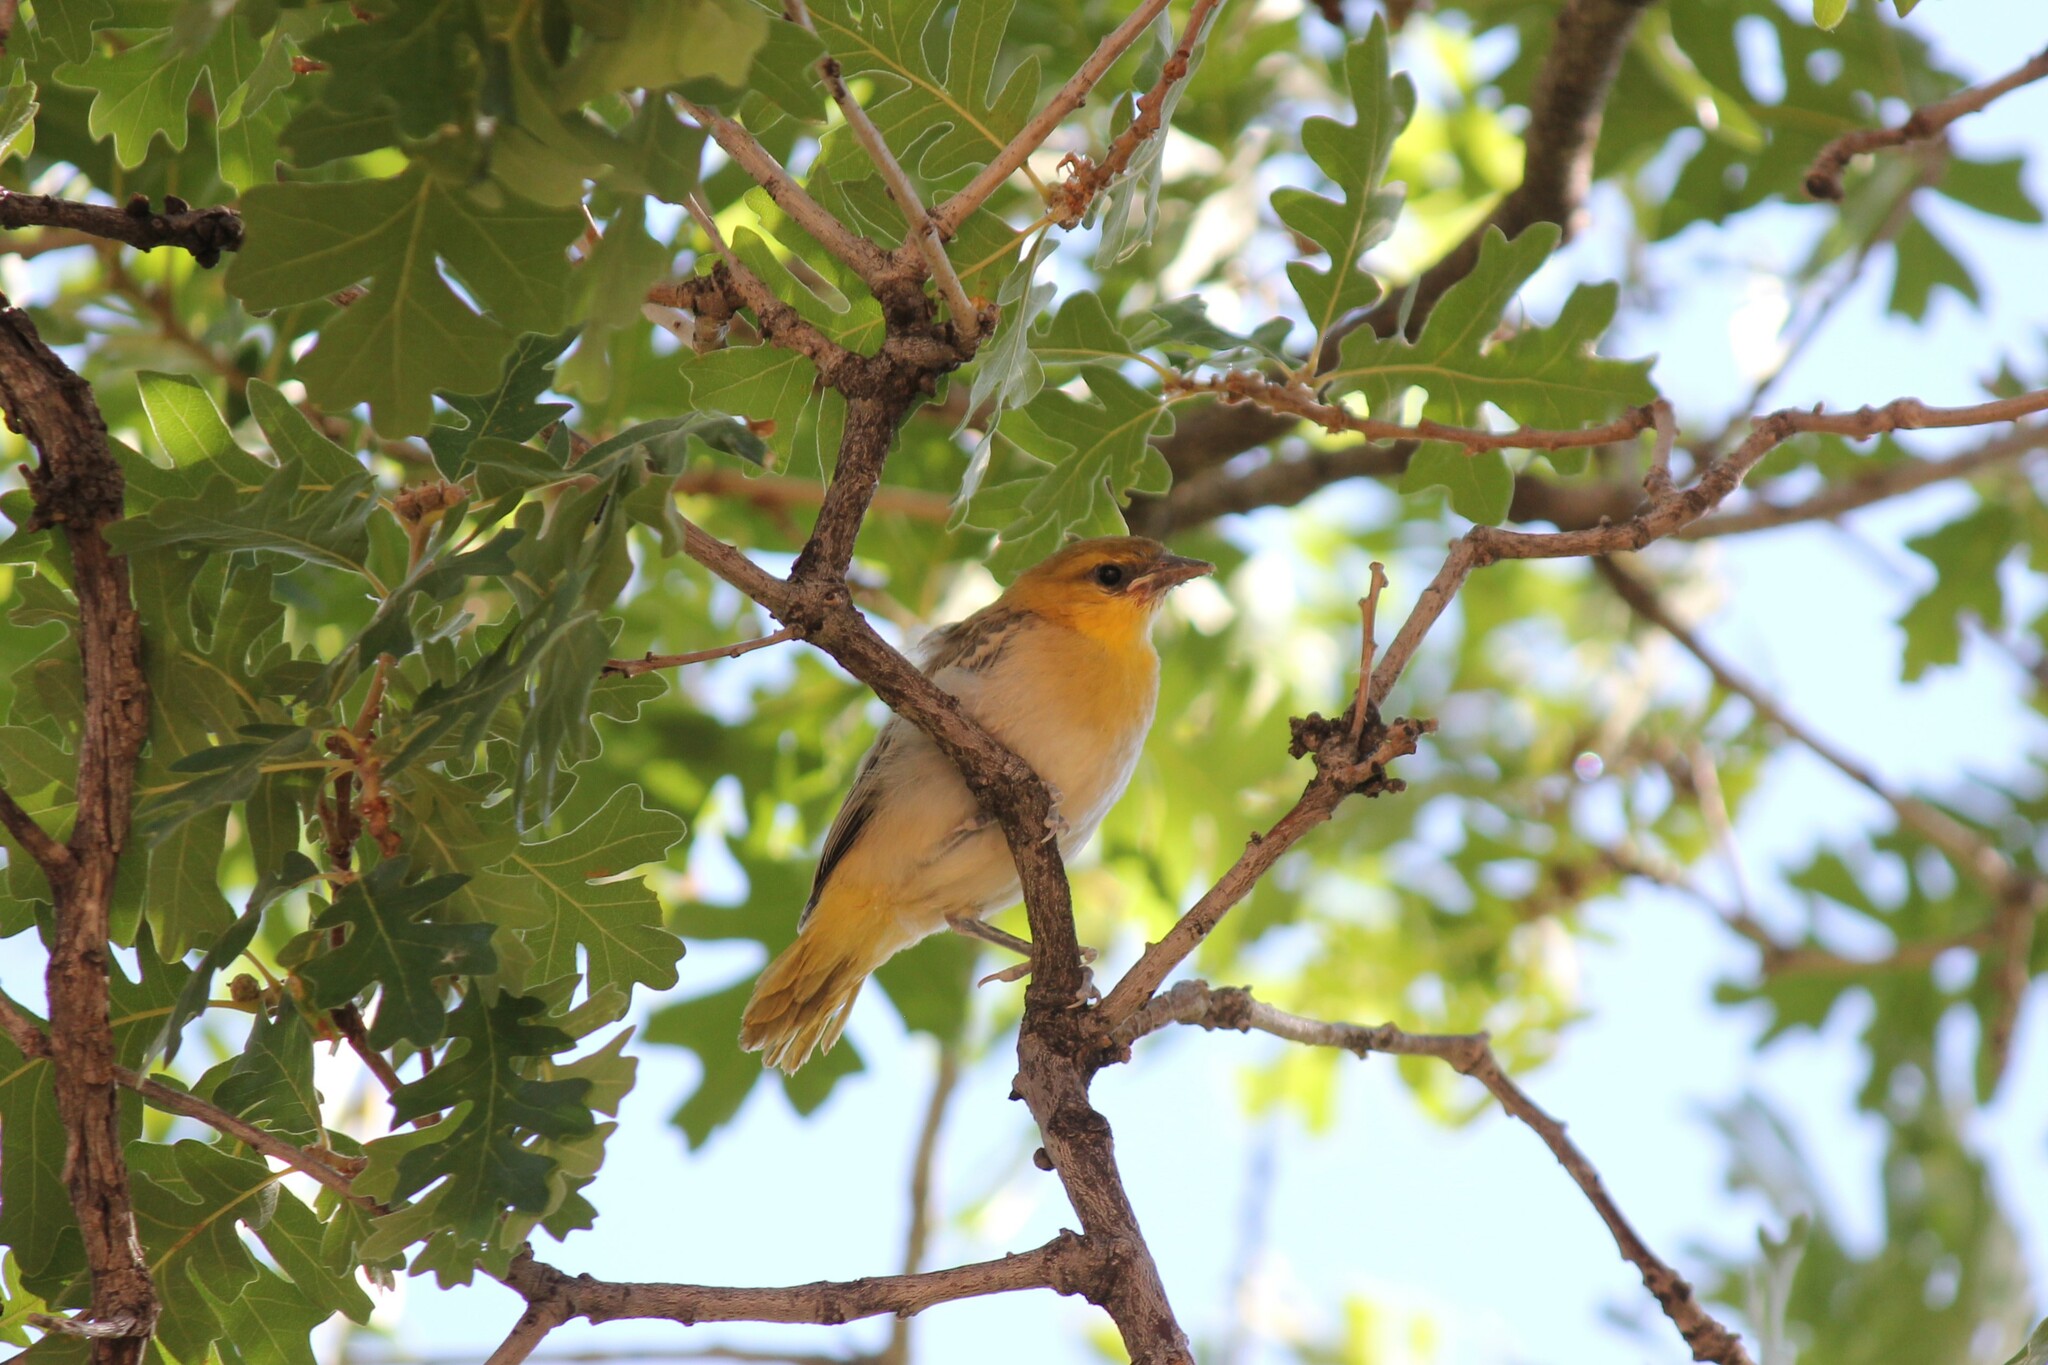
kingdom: Animalia
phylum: Chordata
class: Aves
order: Passeriformes
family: Icteridae
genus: Icterus
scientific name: Icterus bullockii
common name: Bullock's oriole
